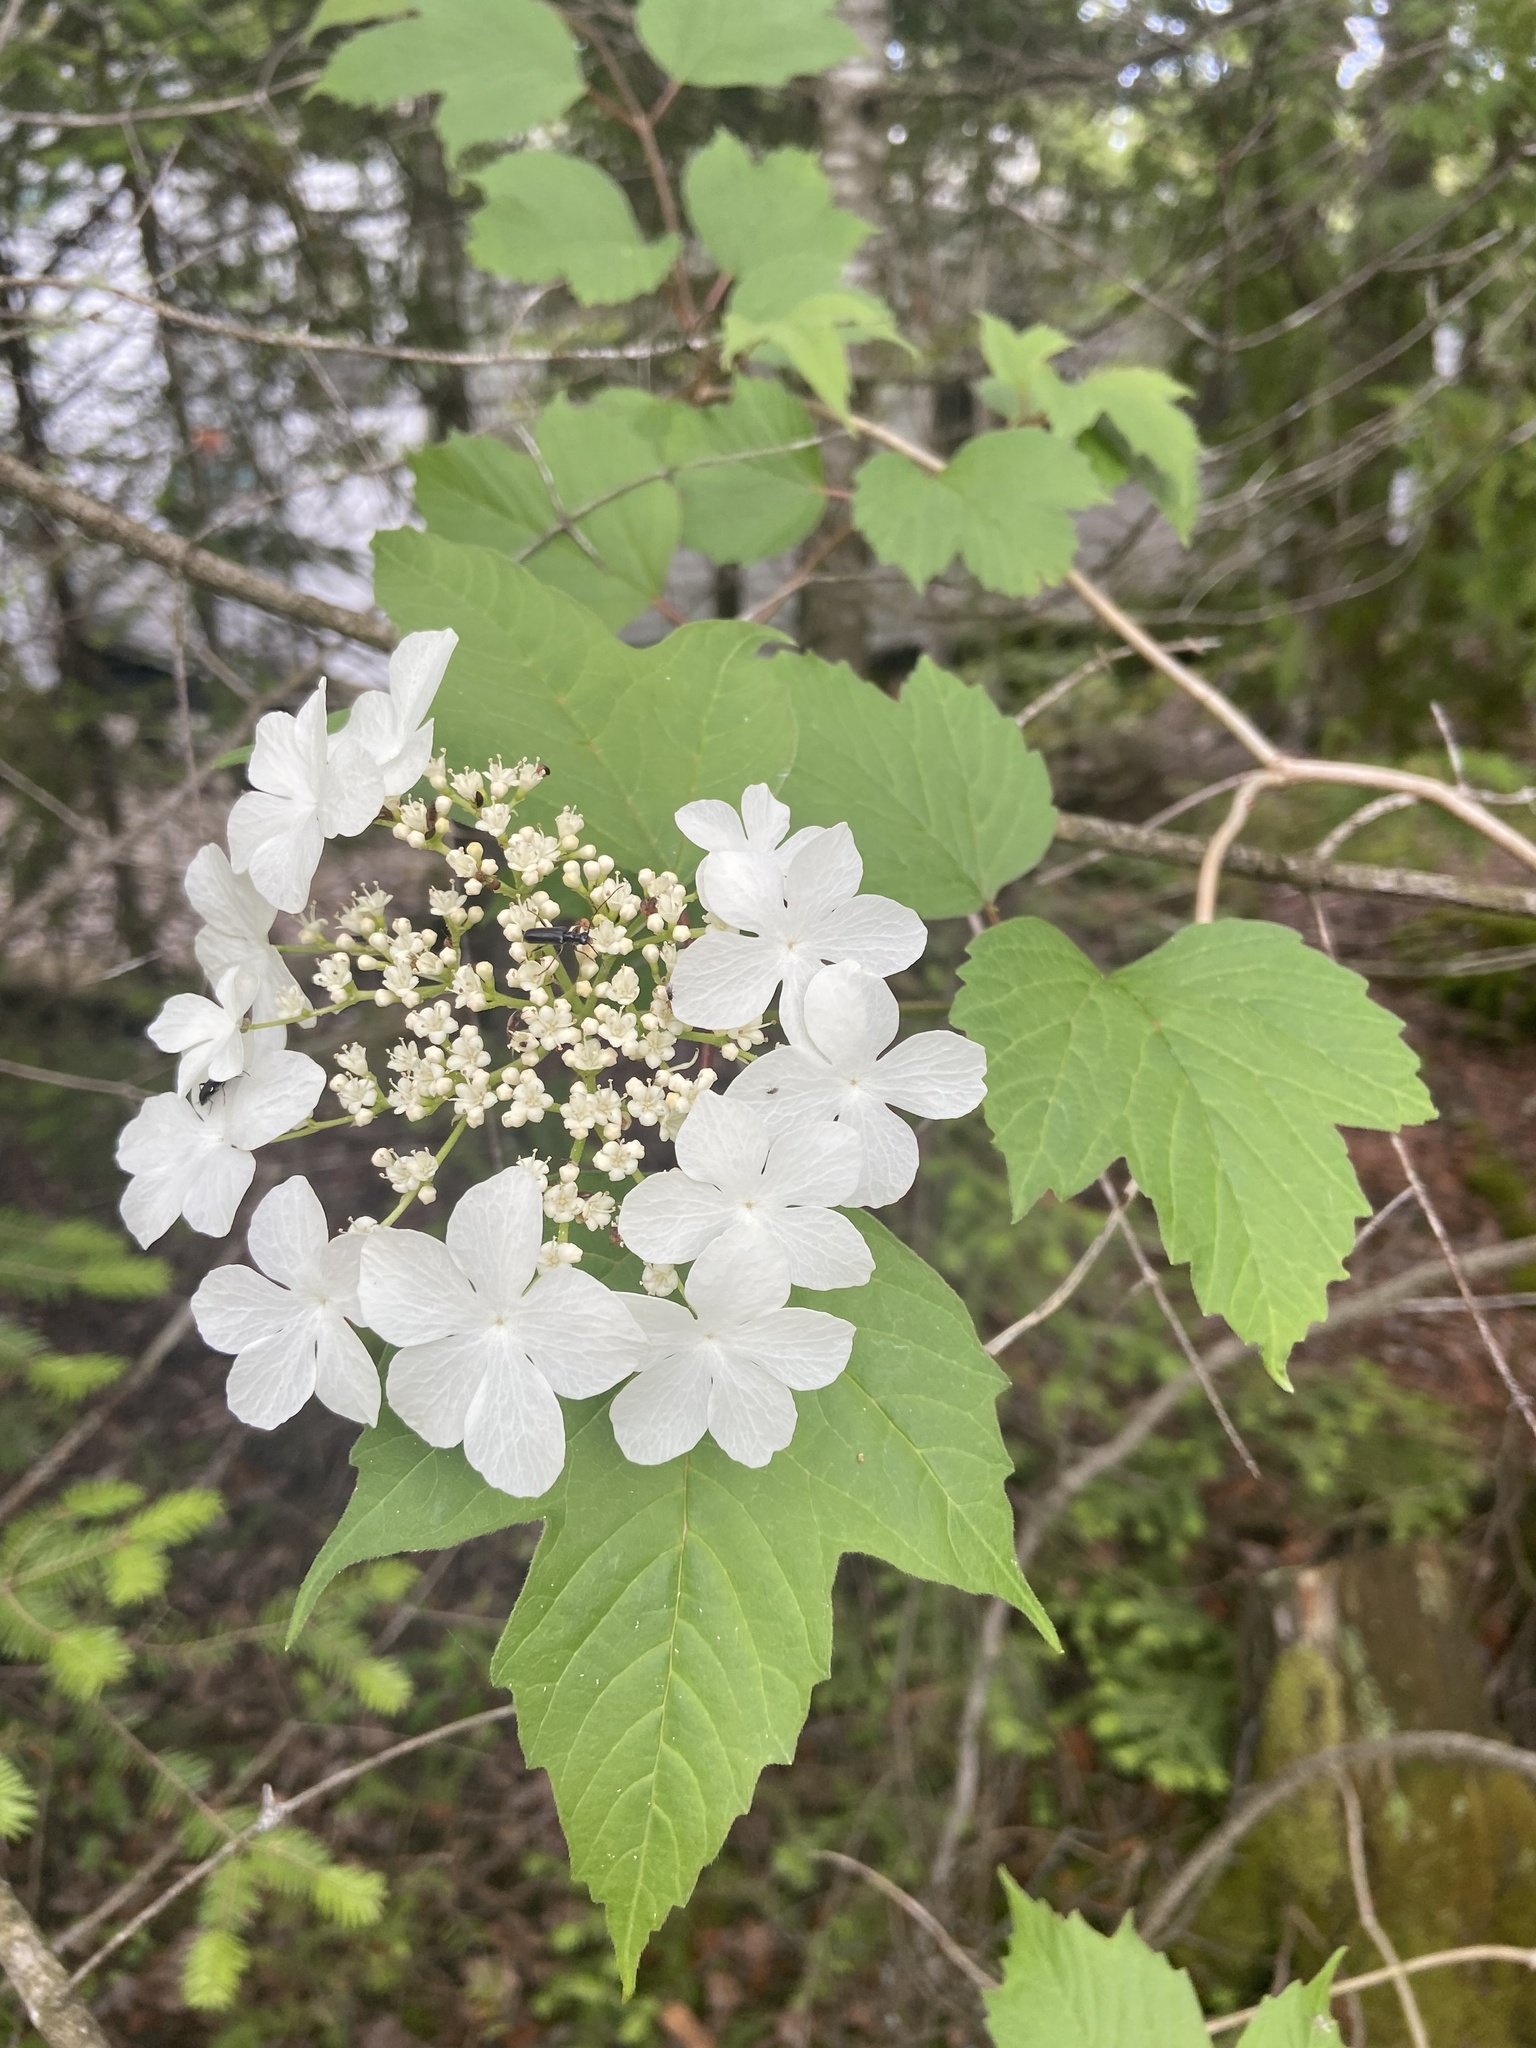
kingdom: Plantae
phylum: Tracheophyta
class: Magnoliopsida
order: Dipsacales
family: Viburnaceae
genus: Viburnum
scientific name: Viburnum opulus
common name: Guelder-rose
